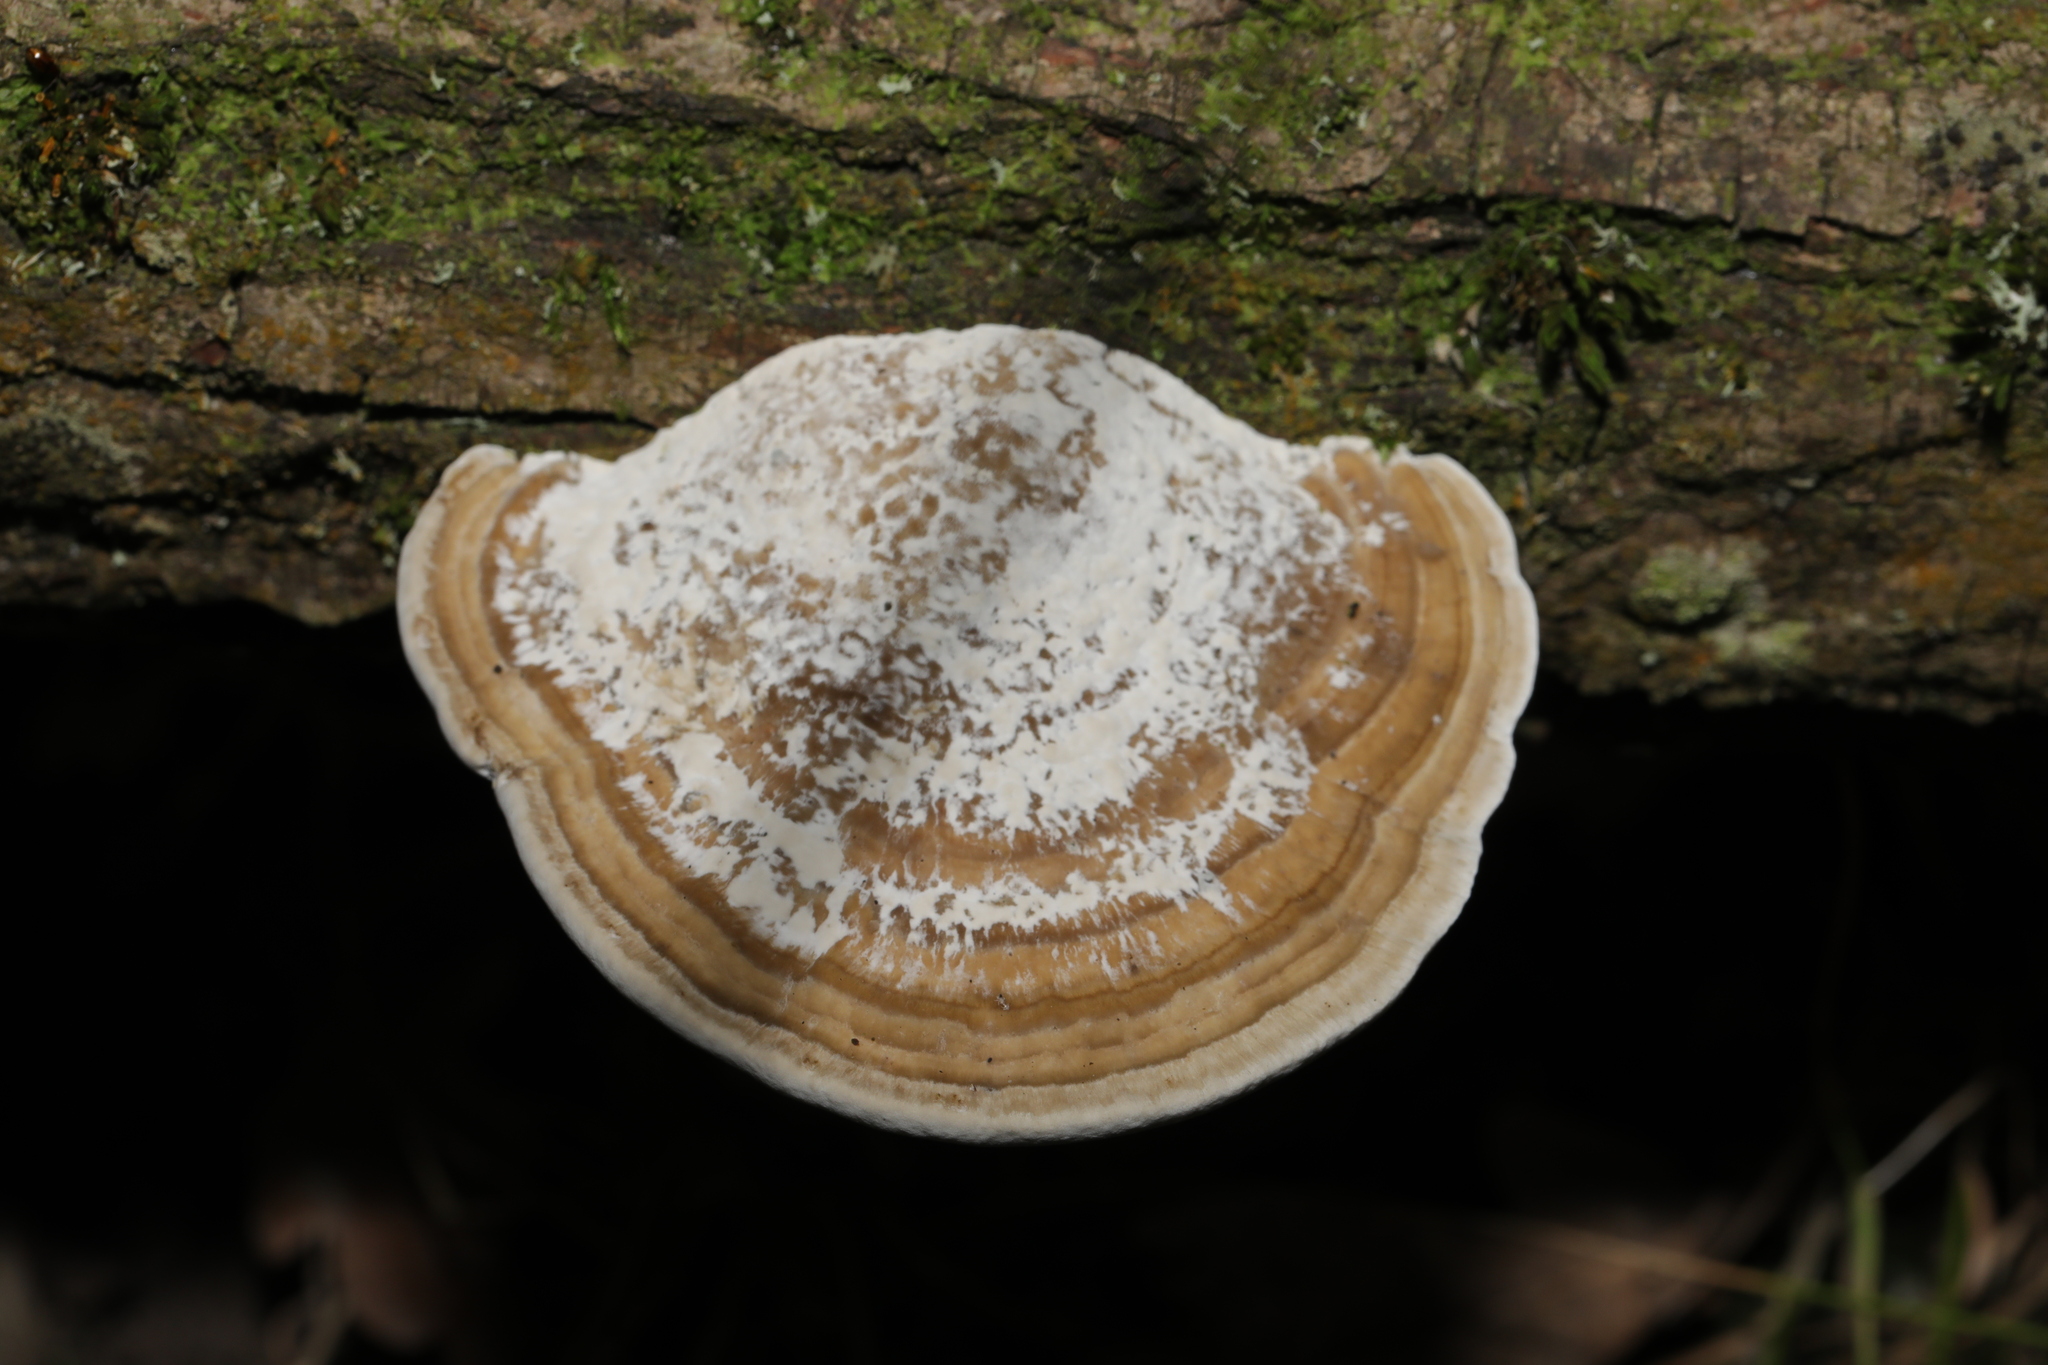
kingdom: Fungi
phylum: Basidiomycota
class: Agaricomycetes
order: Polyporales
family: Polyporaceae
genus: Daedaleopsis
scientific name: Daedaleopsis confragosa
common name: Blushing bracket
